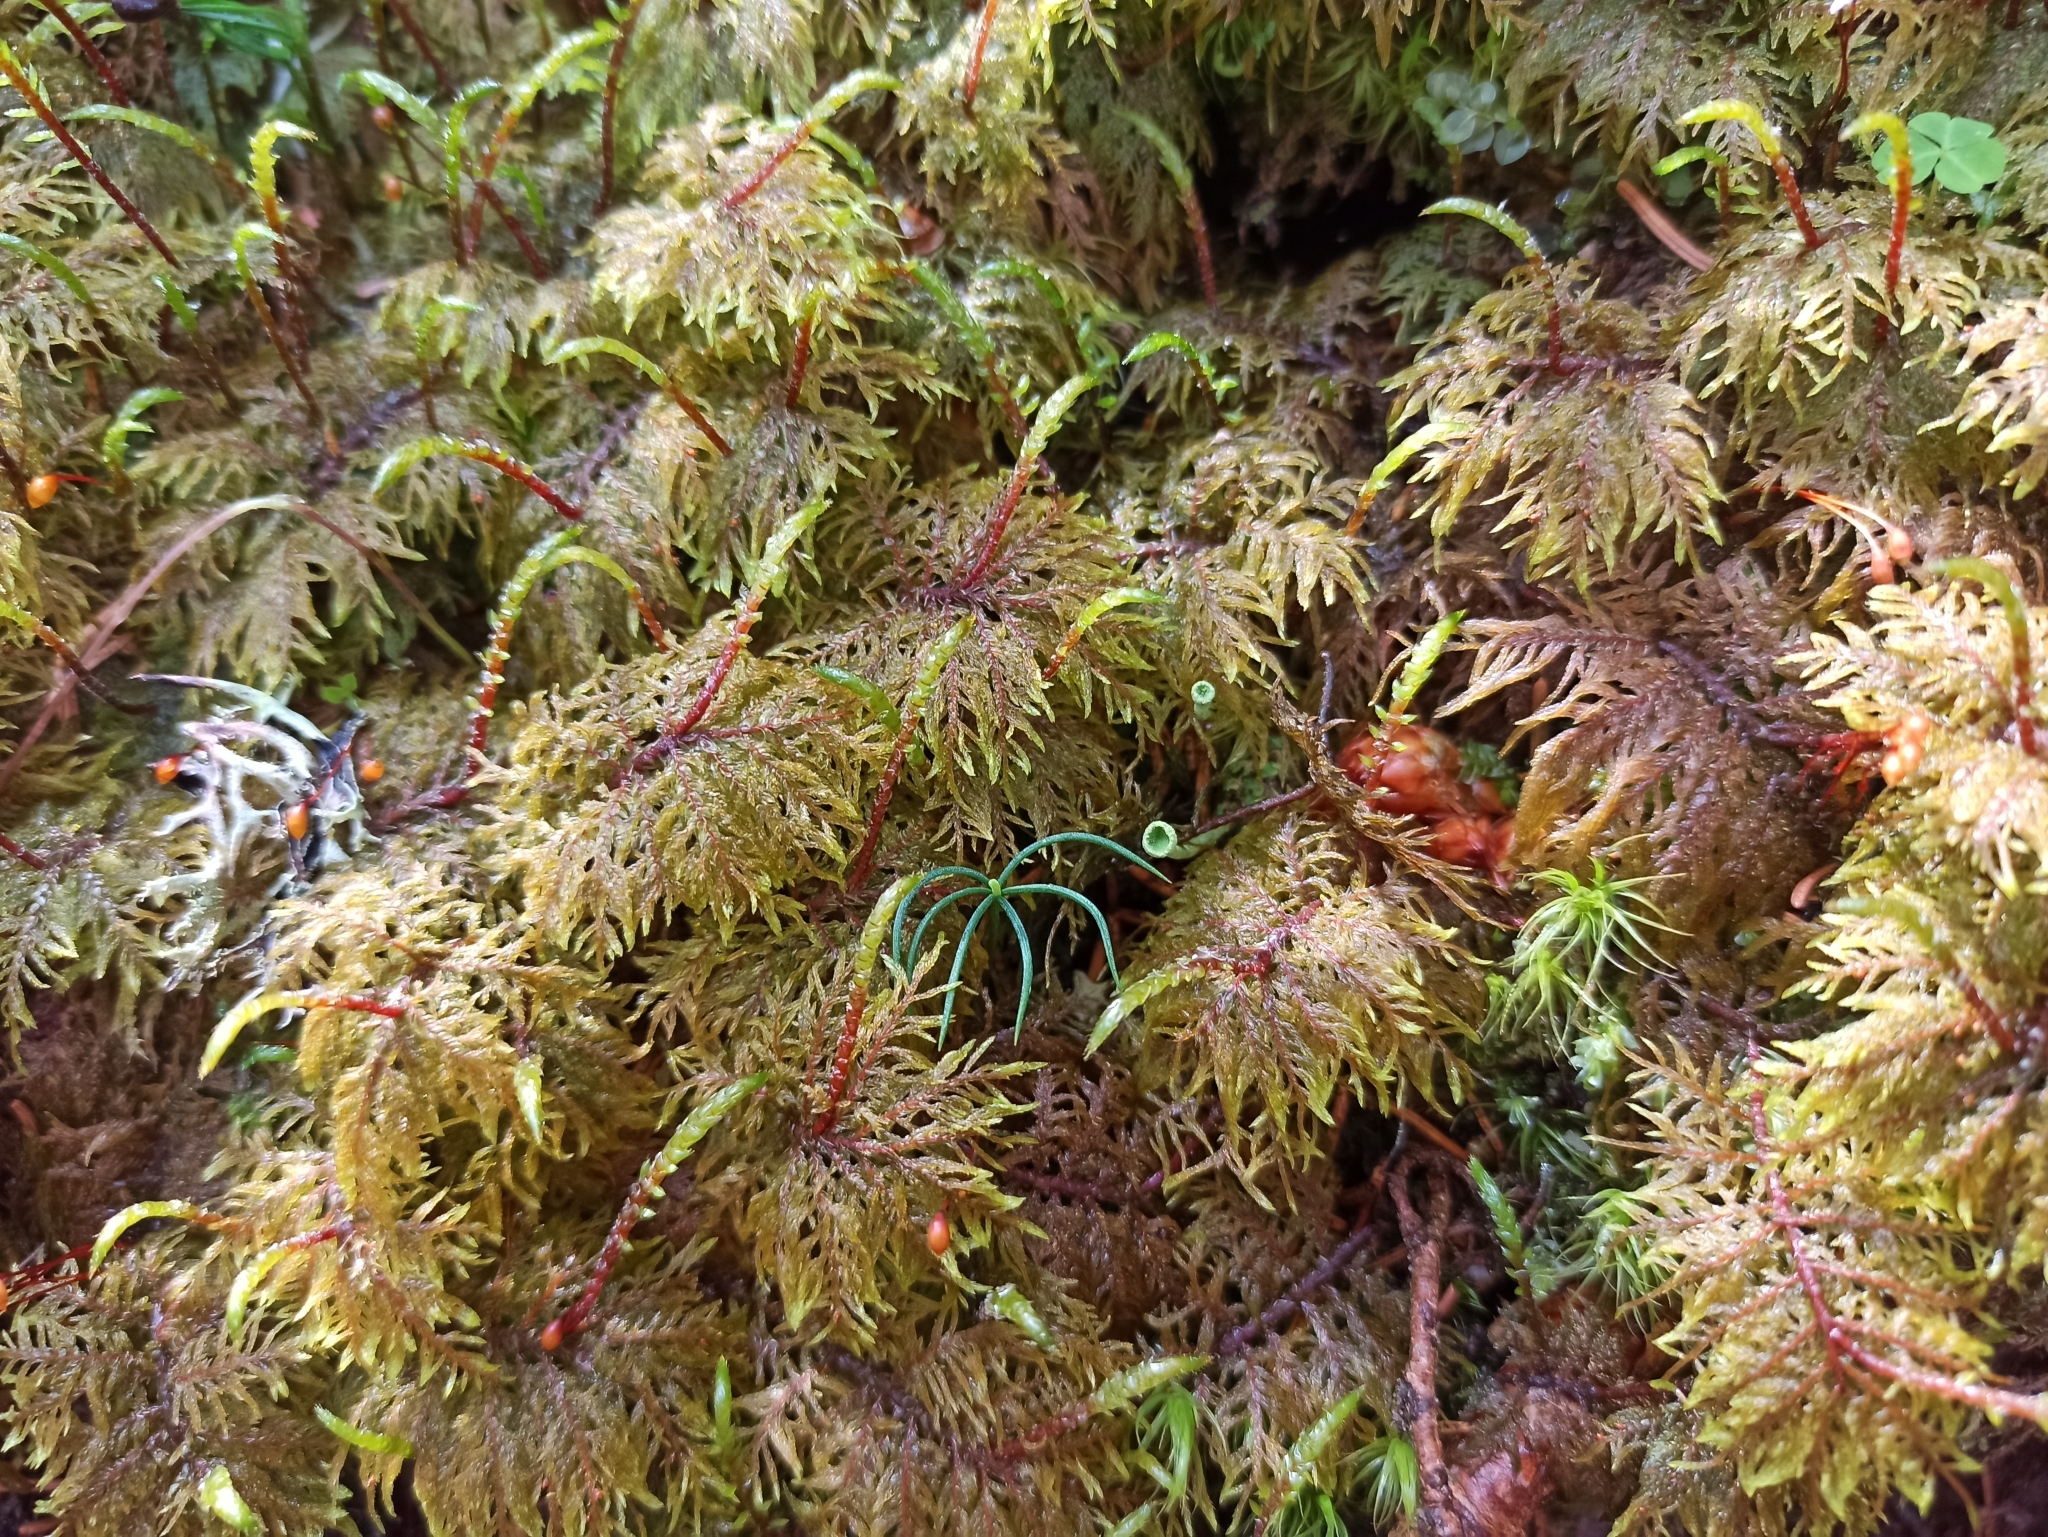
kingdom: Plantae
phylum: Bryophyta
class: Bryopsida
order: Hypnales
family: Hylocomiaceae
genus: Hylocomium
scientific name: Hylocomium splendens
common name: Stairstep moss
